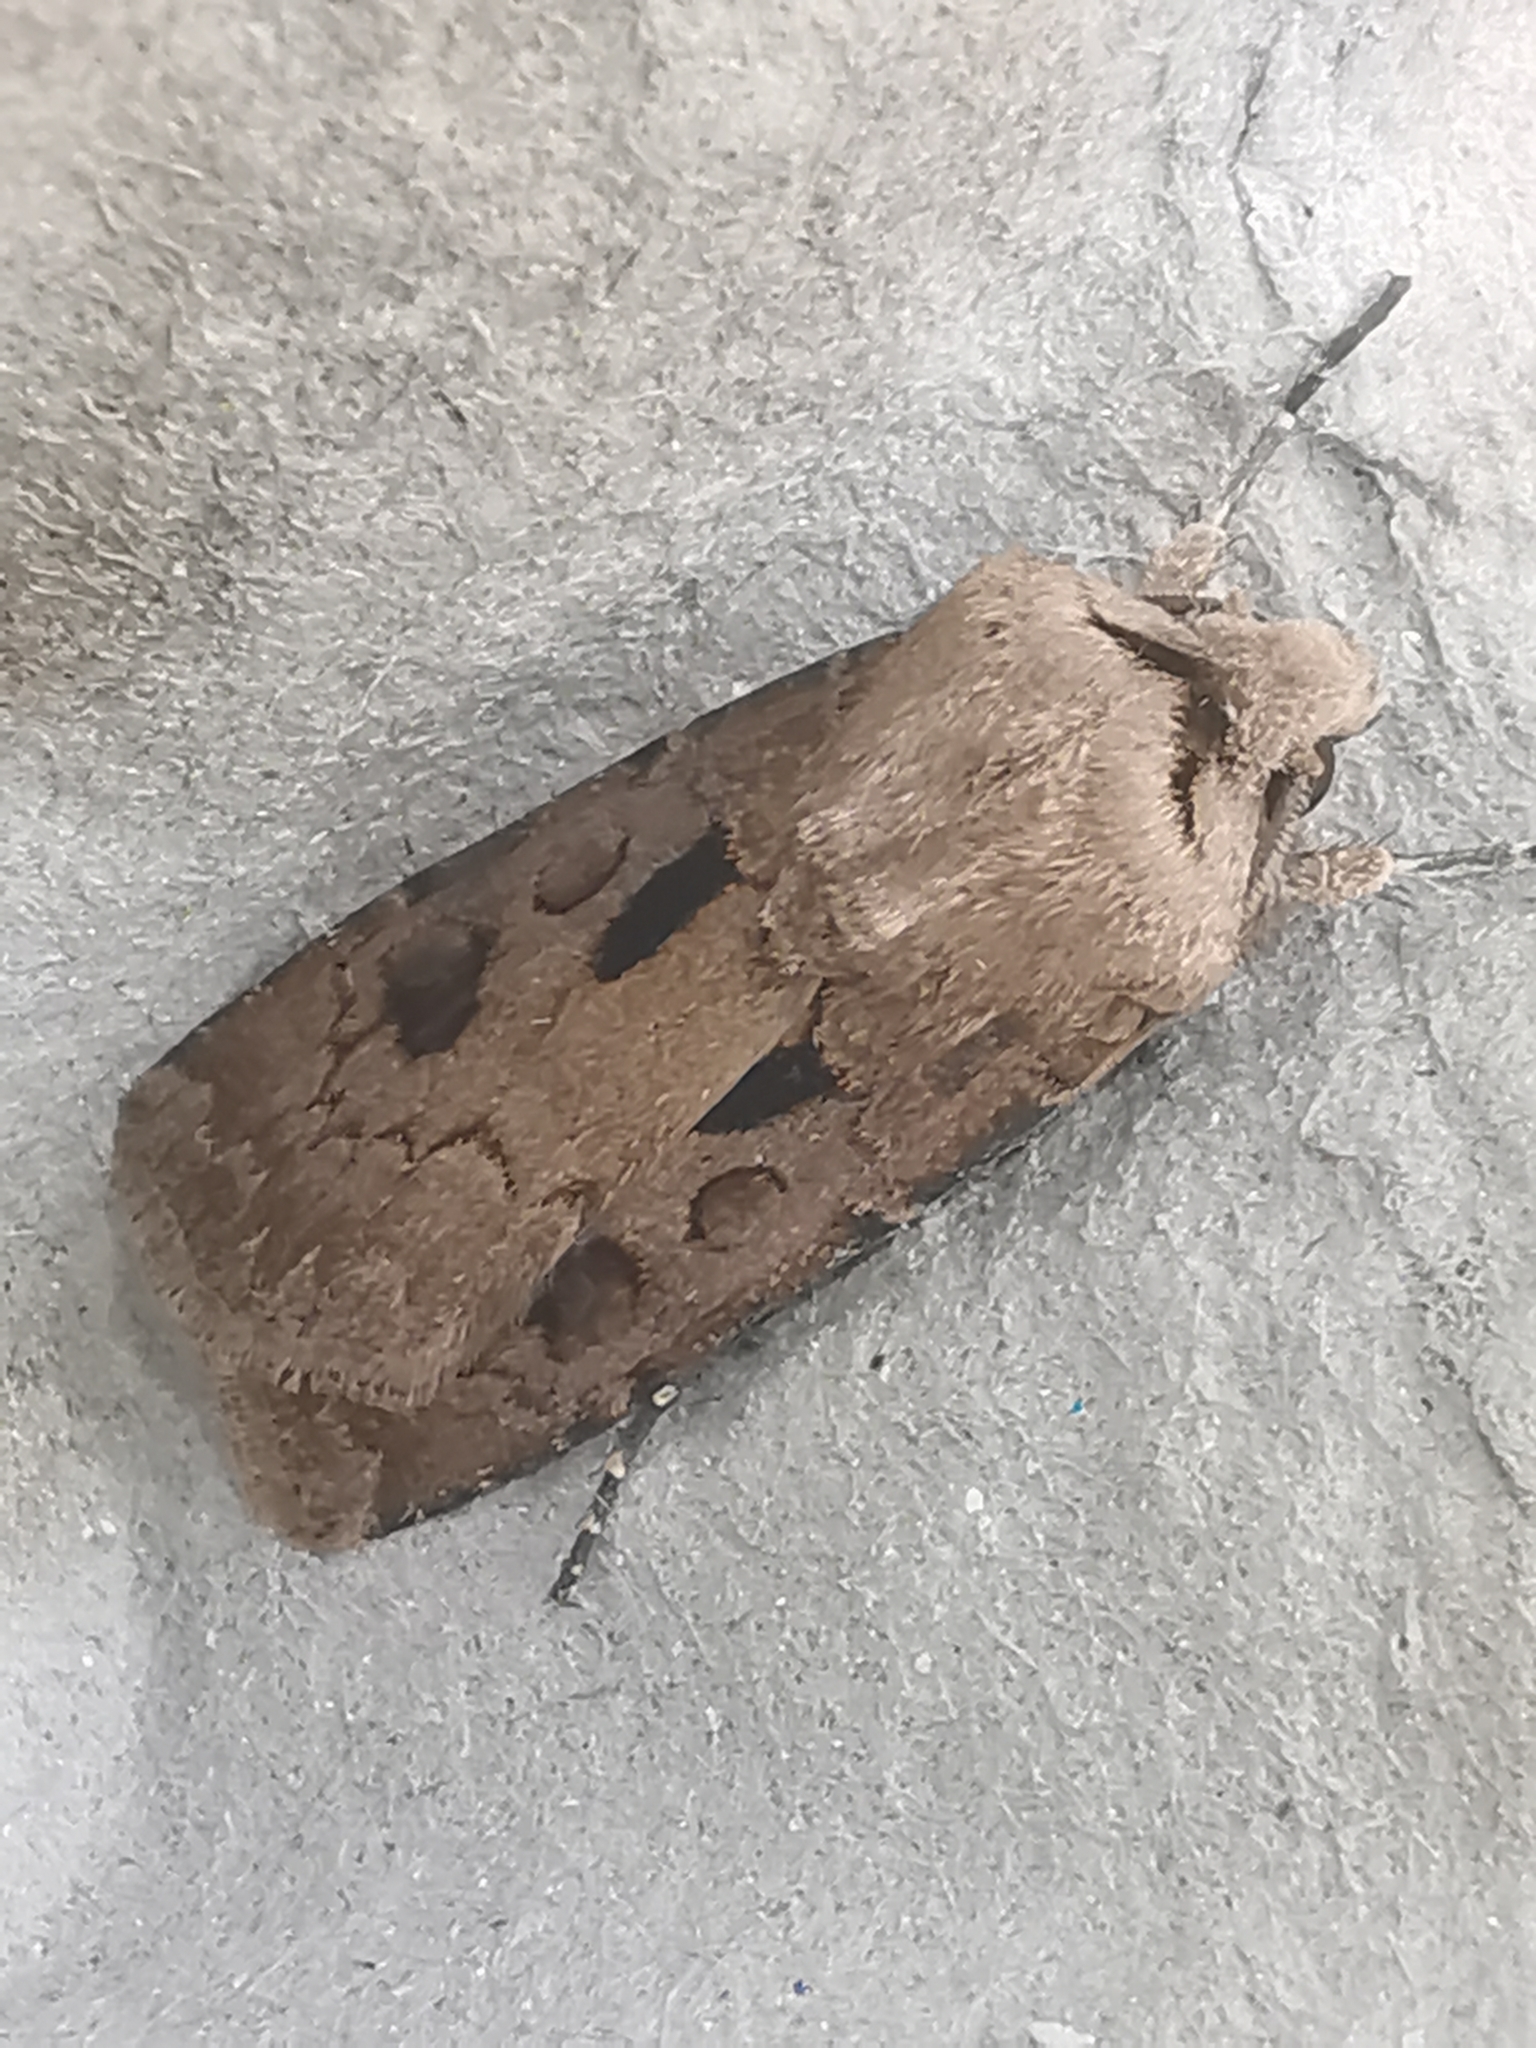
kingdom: Animalia
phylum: Arthropoda
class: Insecta
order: Lepidoptera
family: Noctuidae
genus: Agrotis
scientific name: Agrotis exclamationis
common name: Heart and dart
